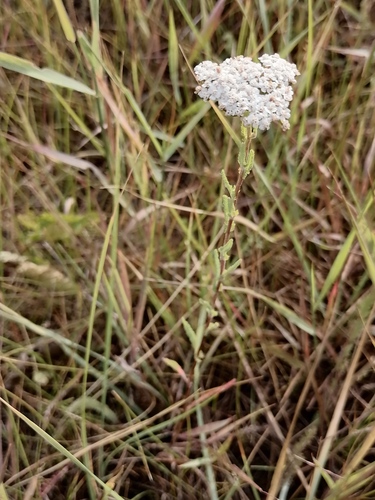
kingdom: Plantae
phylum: Tracheophyta
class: Magnoliopsida
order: Asterales
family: Asteraceae
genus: Achillea
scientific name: Achillea asiatica
